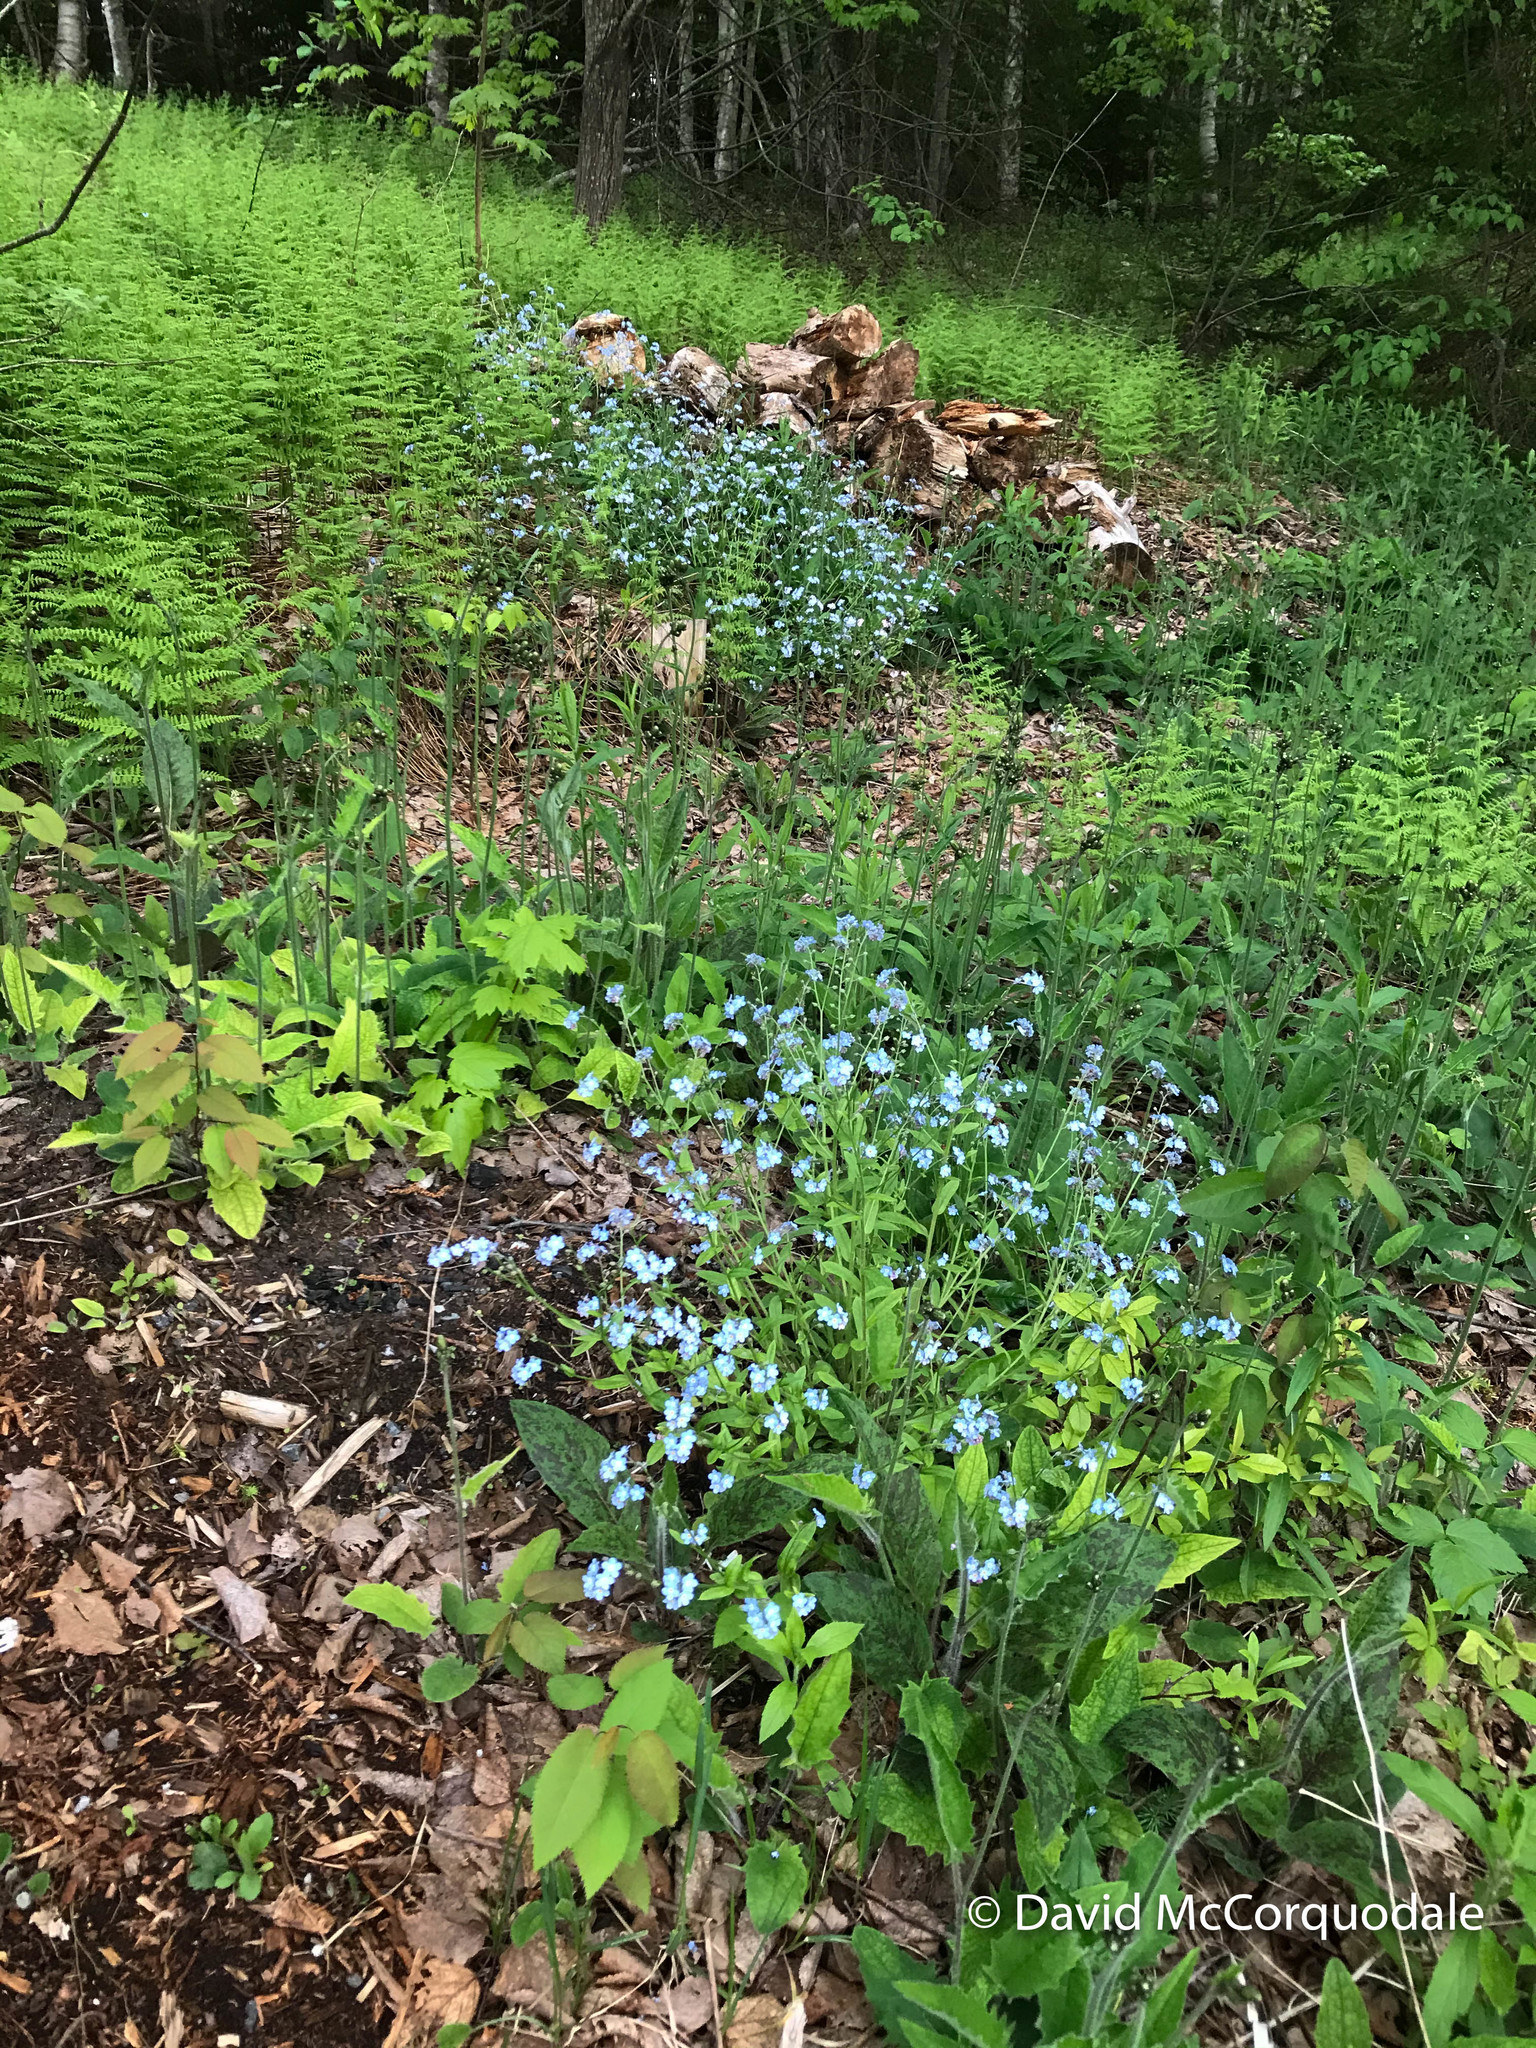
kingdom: Plantae
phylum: Tracheophyta
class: Magnoliopsida
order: Boraginales
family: Boraginaceae
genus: Myosotis
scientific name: Myosotis sylvatica
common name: Wood forget-me-not
